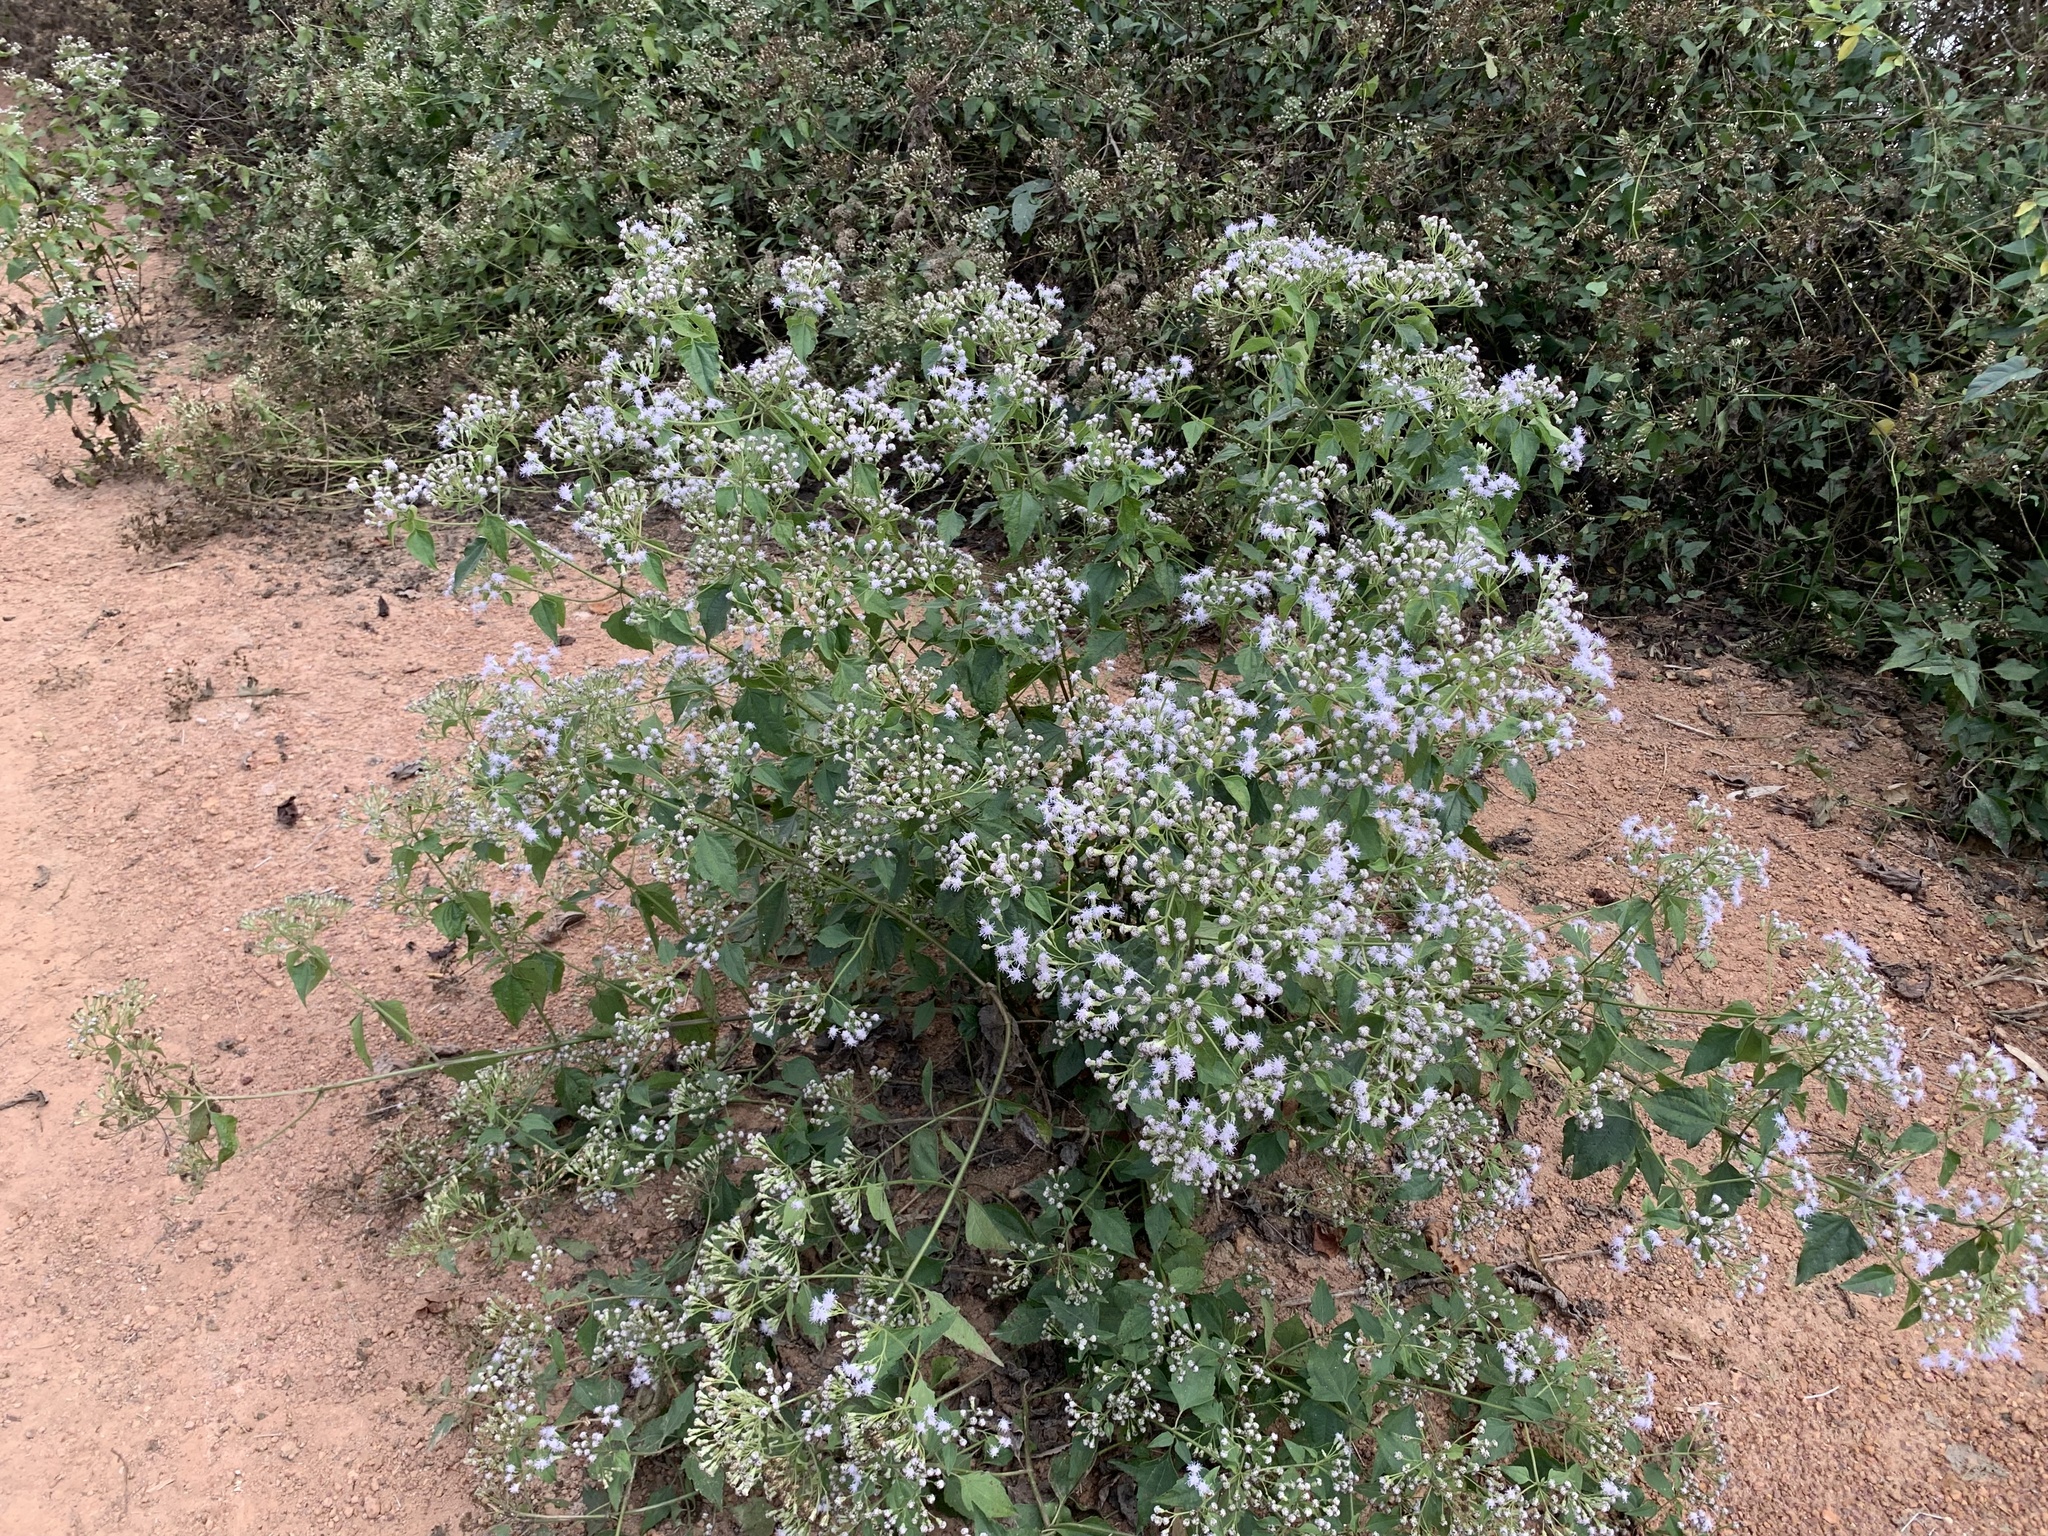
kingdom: Plantae
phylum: Tracheophyta
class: Magnoliopsida
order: Asterales
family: Asteraceae
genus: Chromolaena
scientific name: Chromolaena odorata
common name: Siamweed
